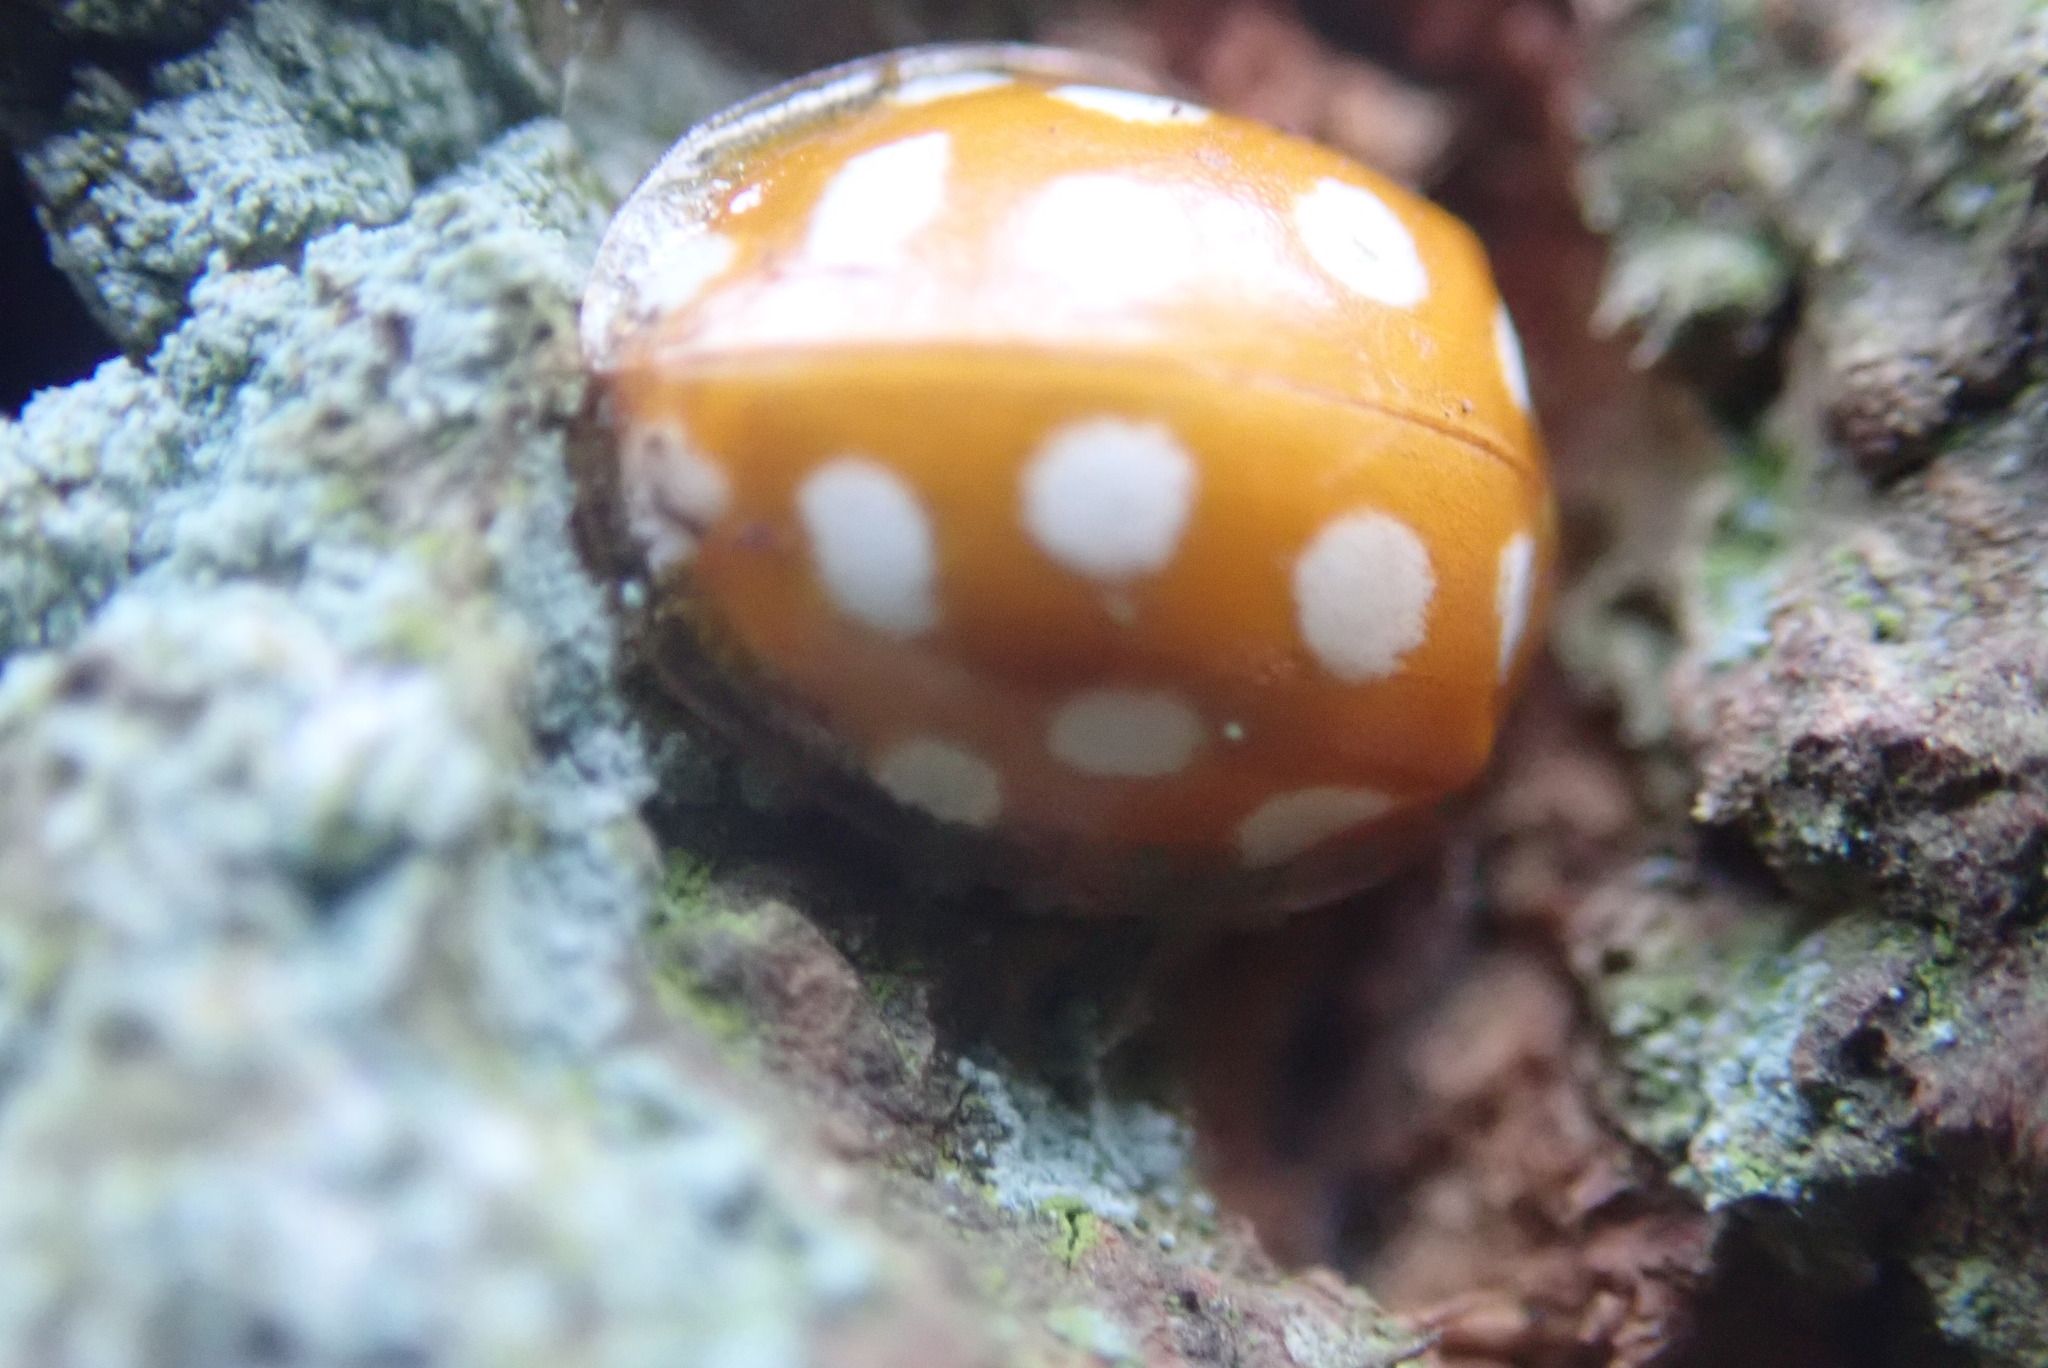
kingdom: Animalia
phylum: Arthropoda
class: Insecta
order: Coleoptera
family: Coccinellidae
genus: Halyzia
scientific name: Halyzia sedecimguttata
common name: Orange ladybird
